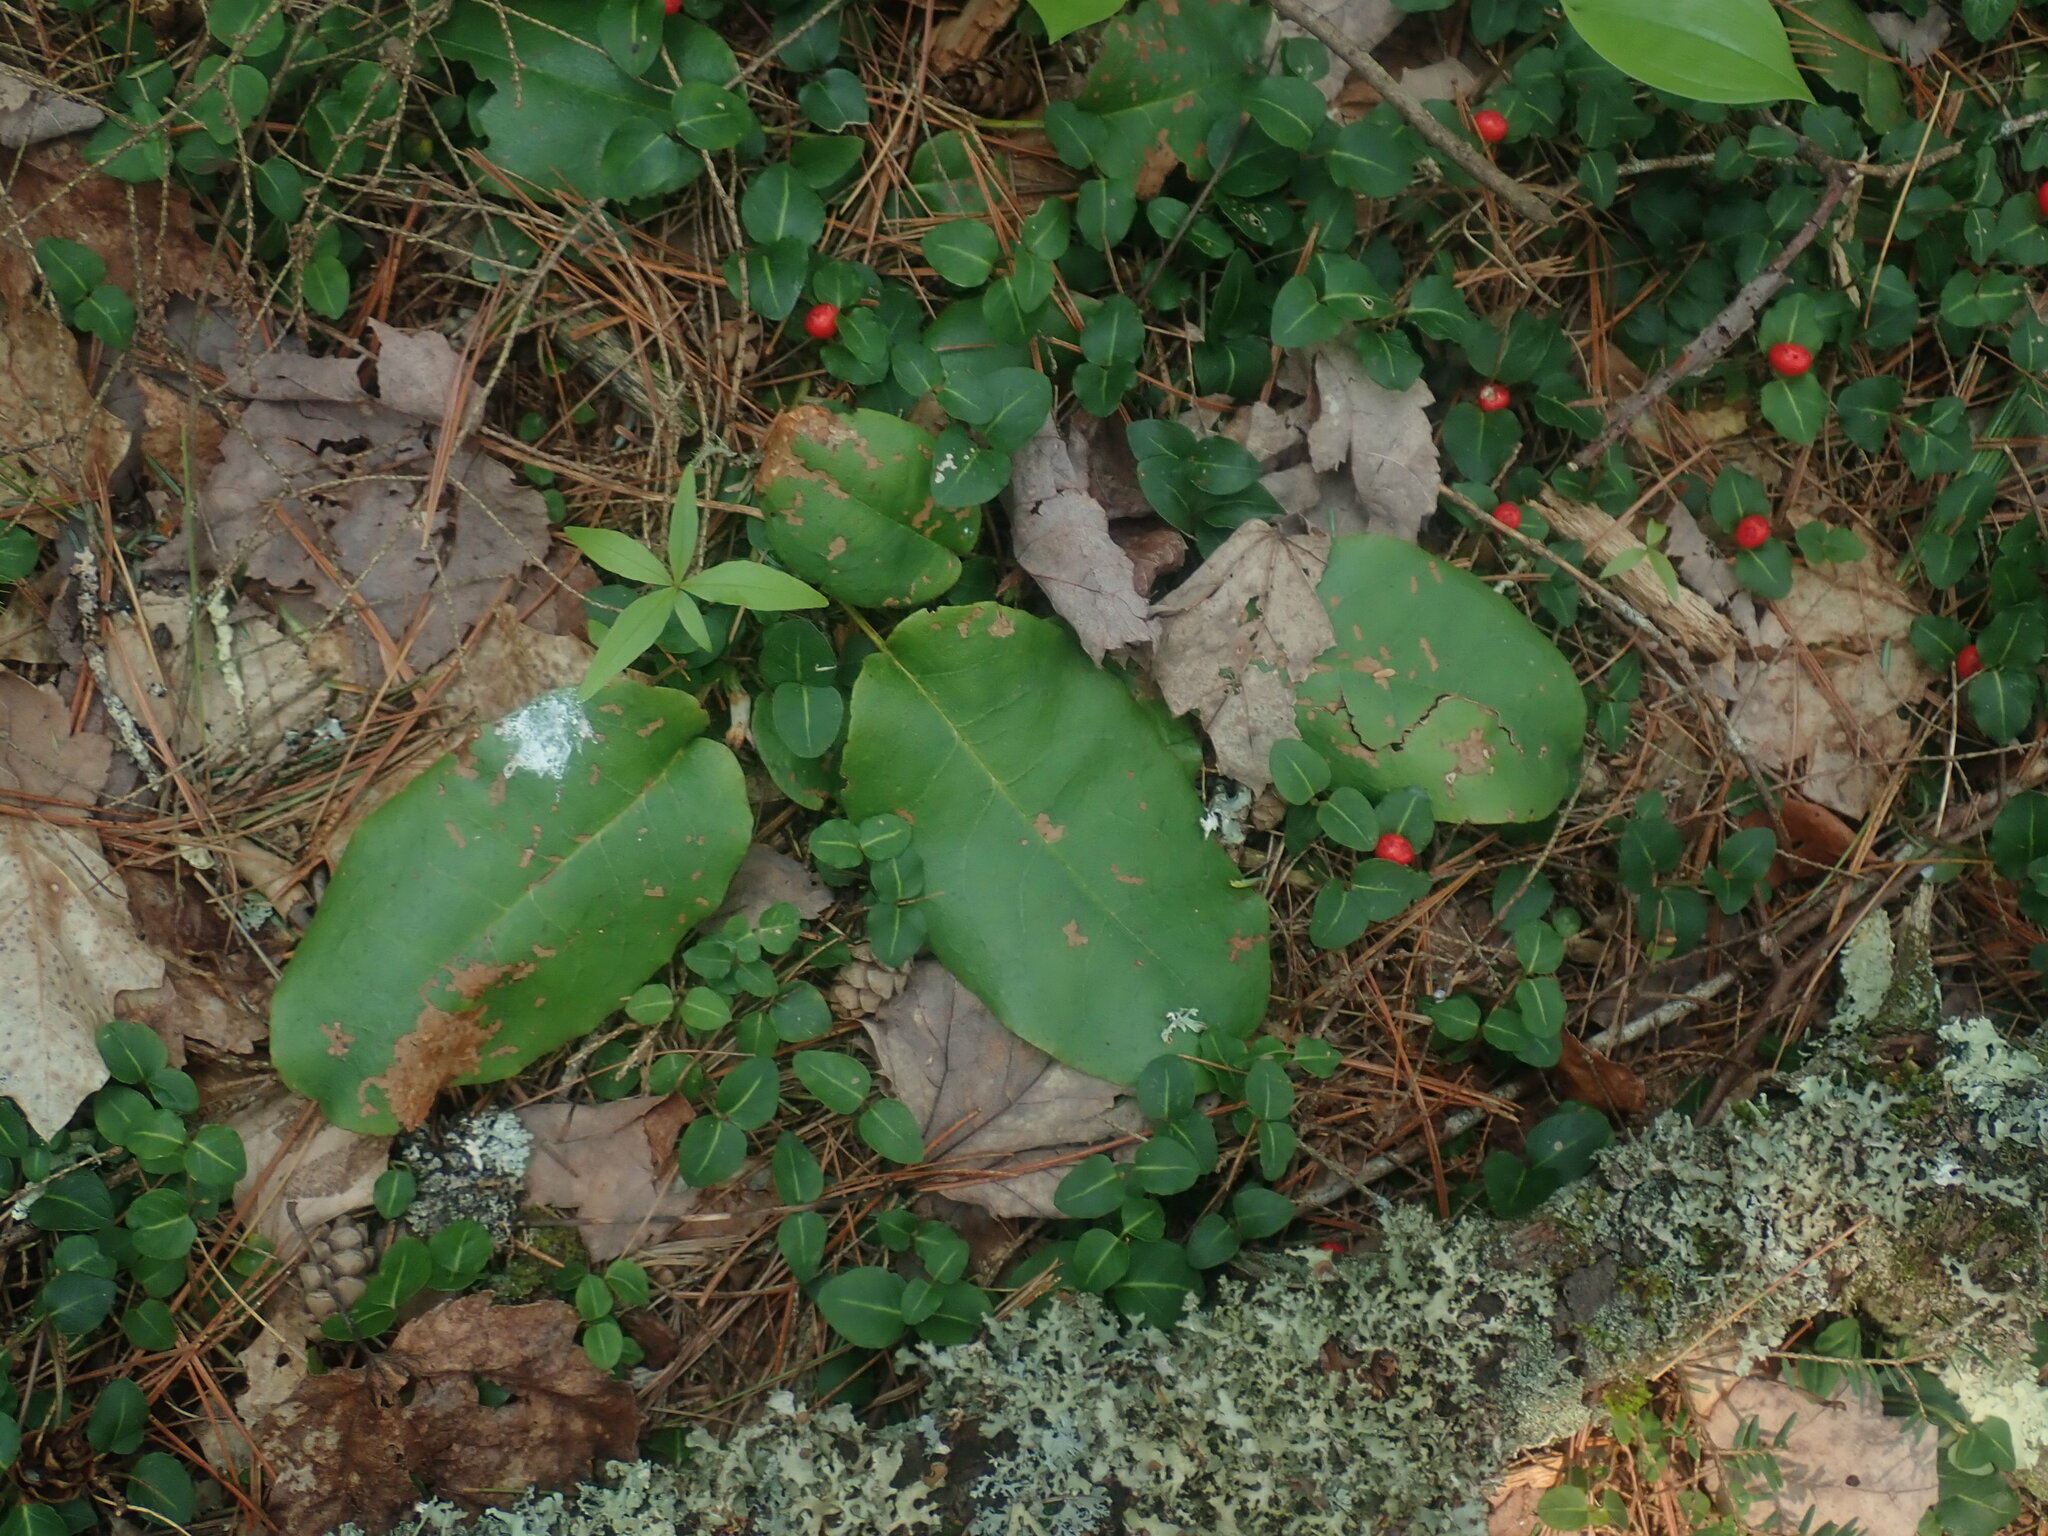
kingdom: Plantae
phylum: Tracheophyta
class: Magnoliopsida
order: Ericales
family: Ericaceae
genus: Epigaea
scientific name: Epigaea repens
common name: Gravelroot
